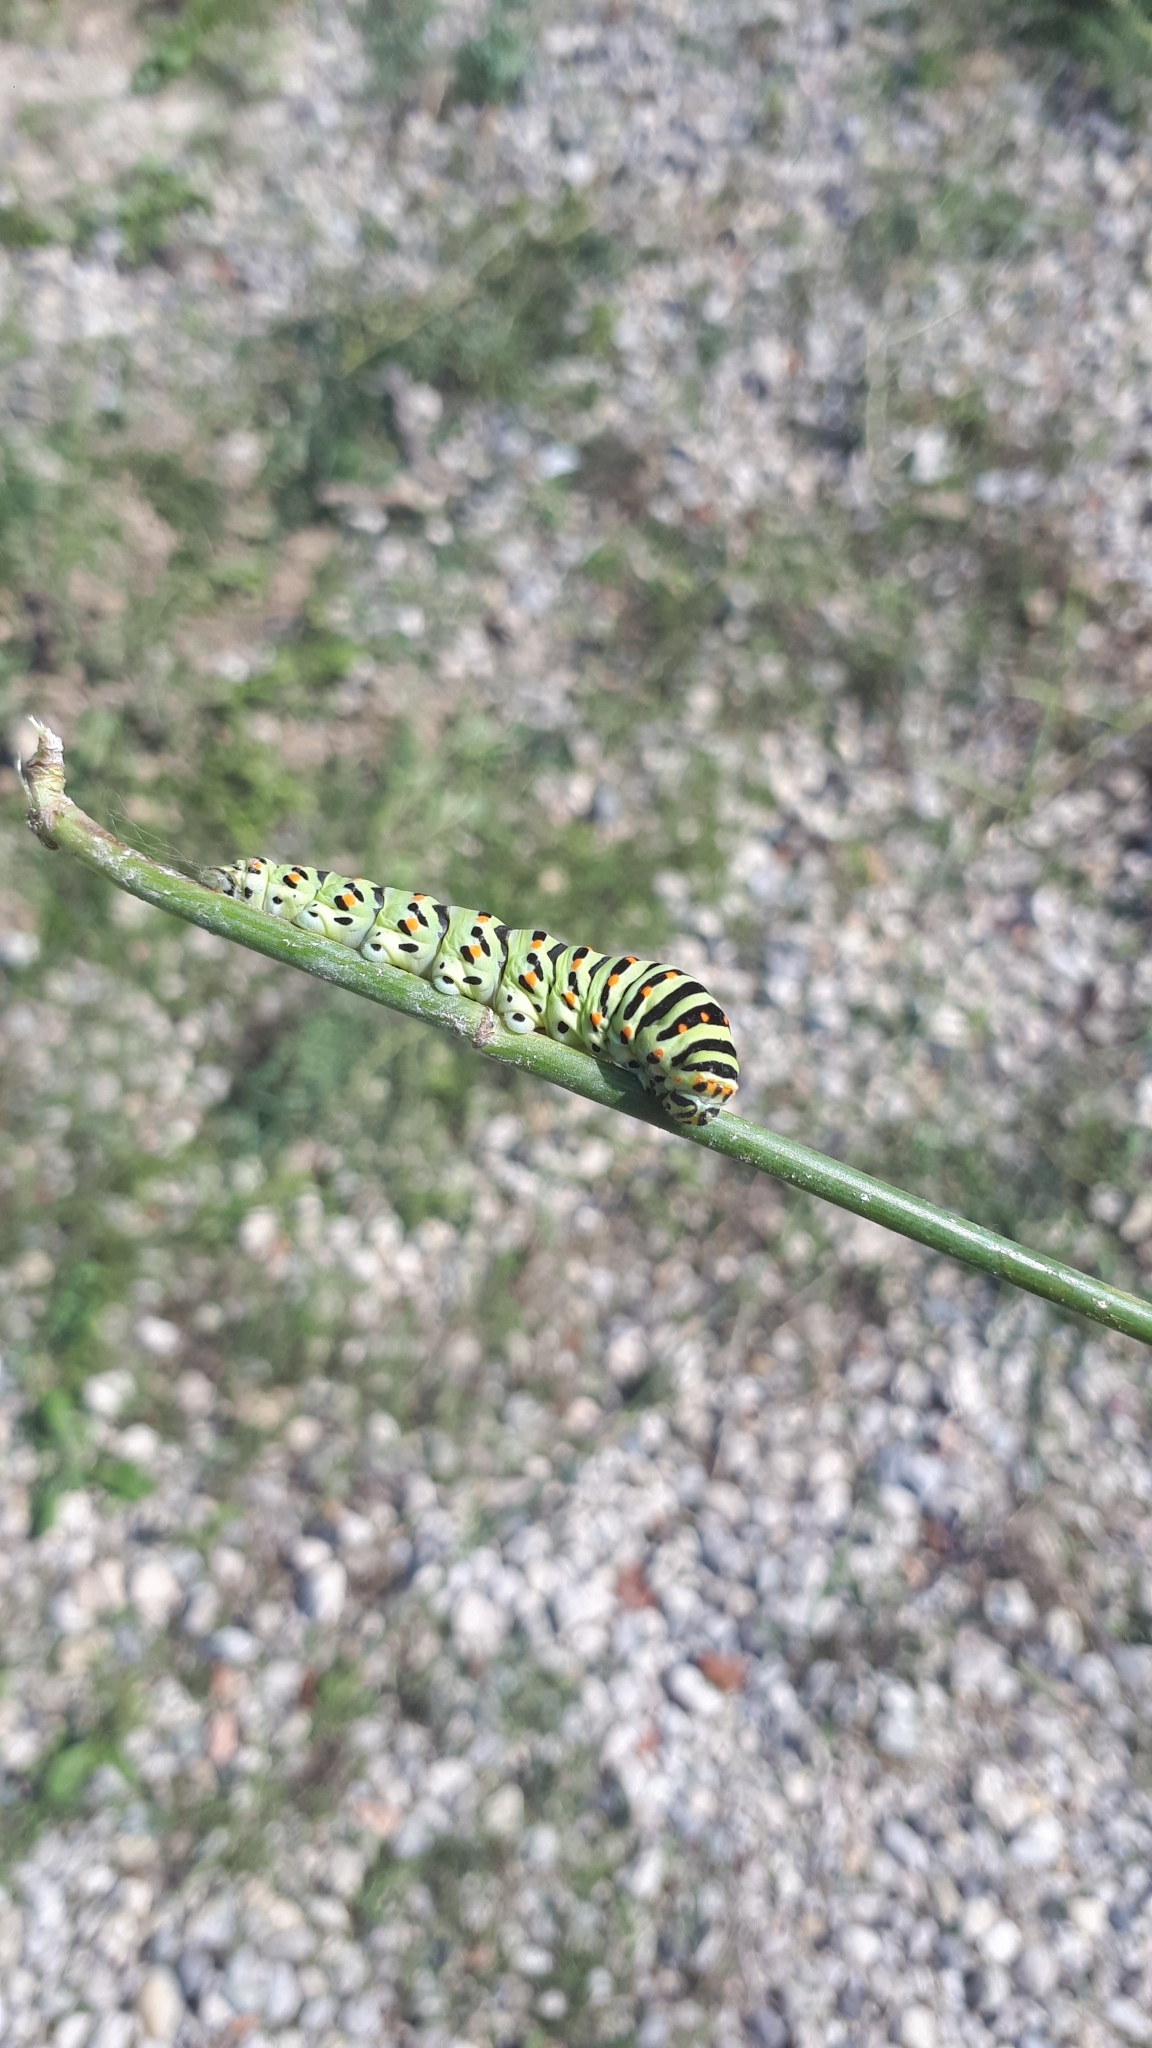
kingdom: Animalia
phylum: Arthropoda
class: Insecta
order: Lepidoptera
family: Papilionidae
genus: Papilio
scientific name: Papilio machaon
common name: Swallowtail
